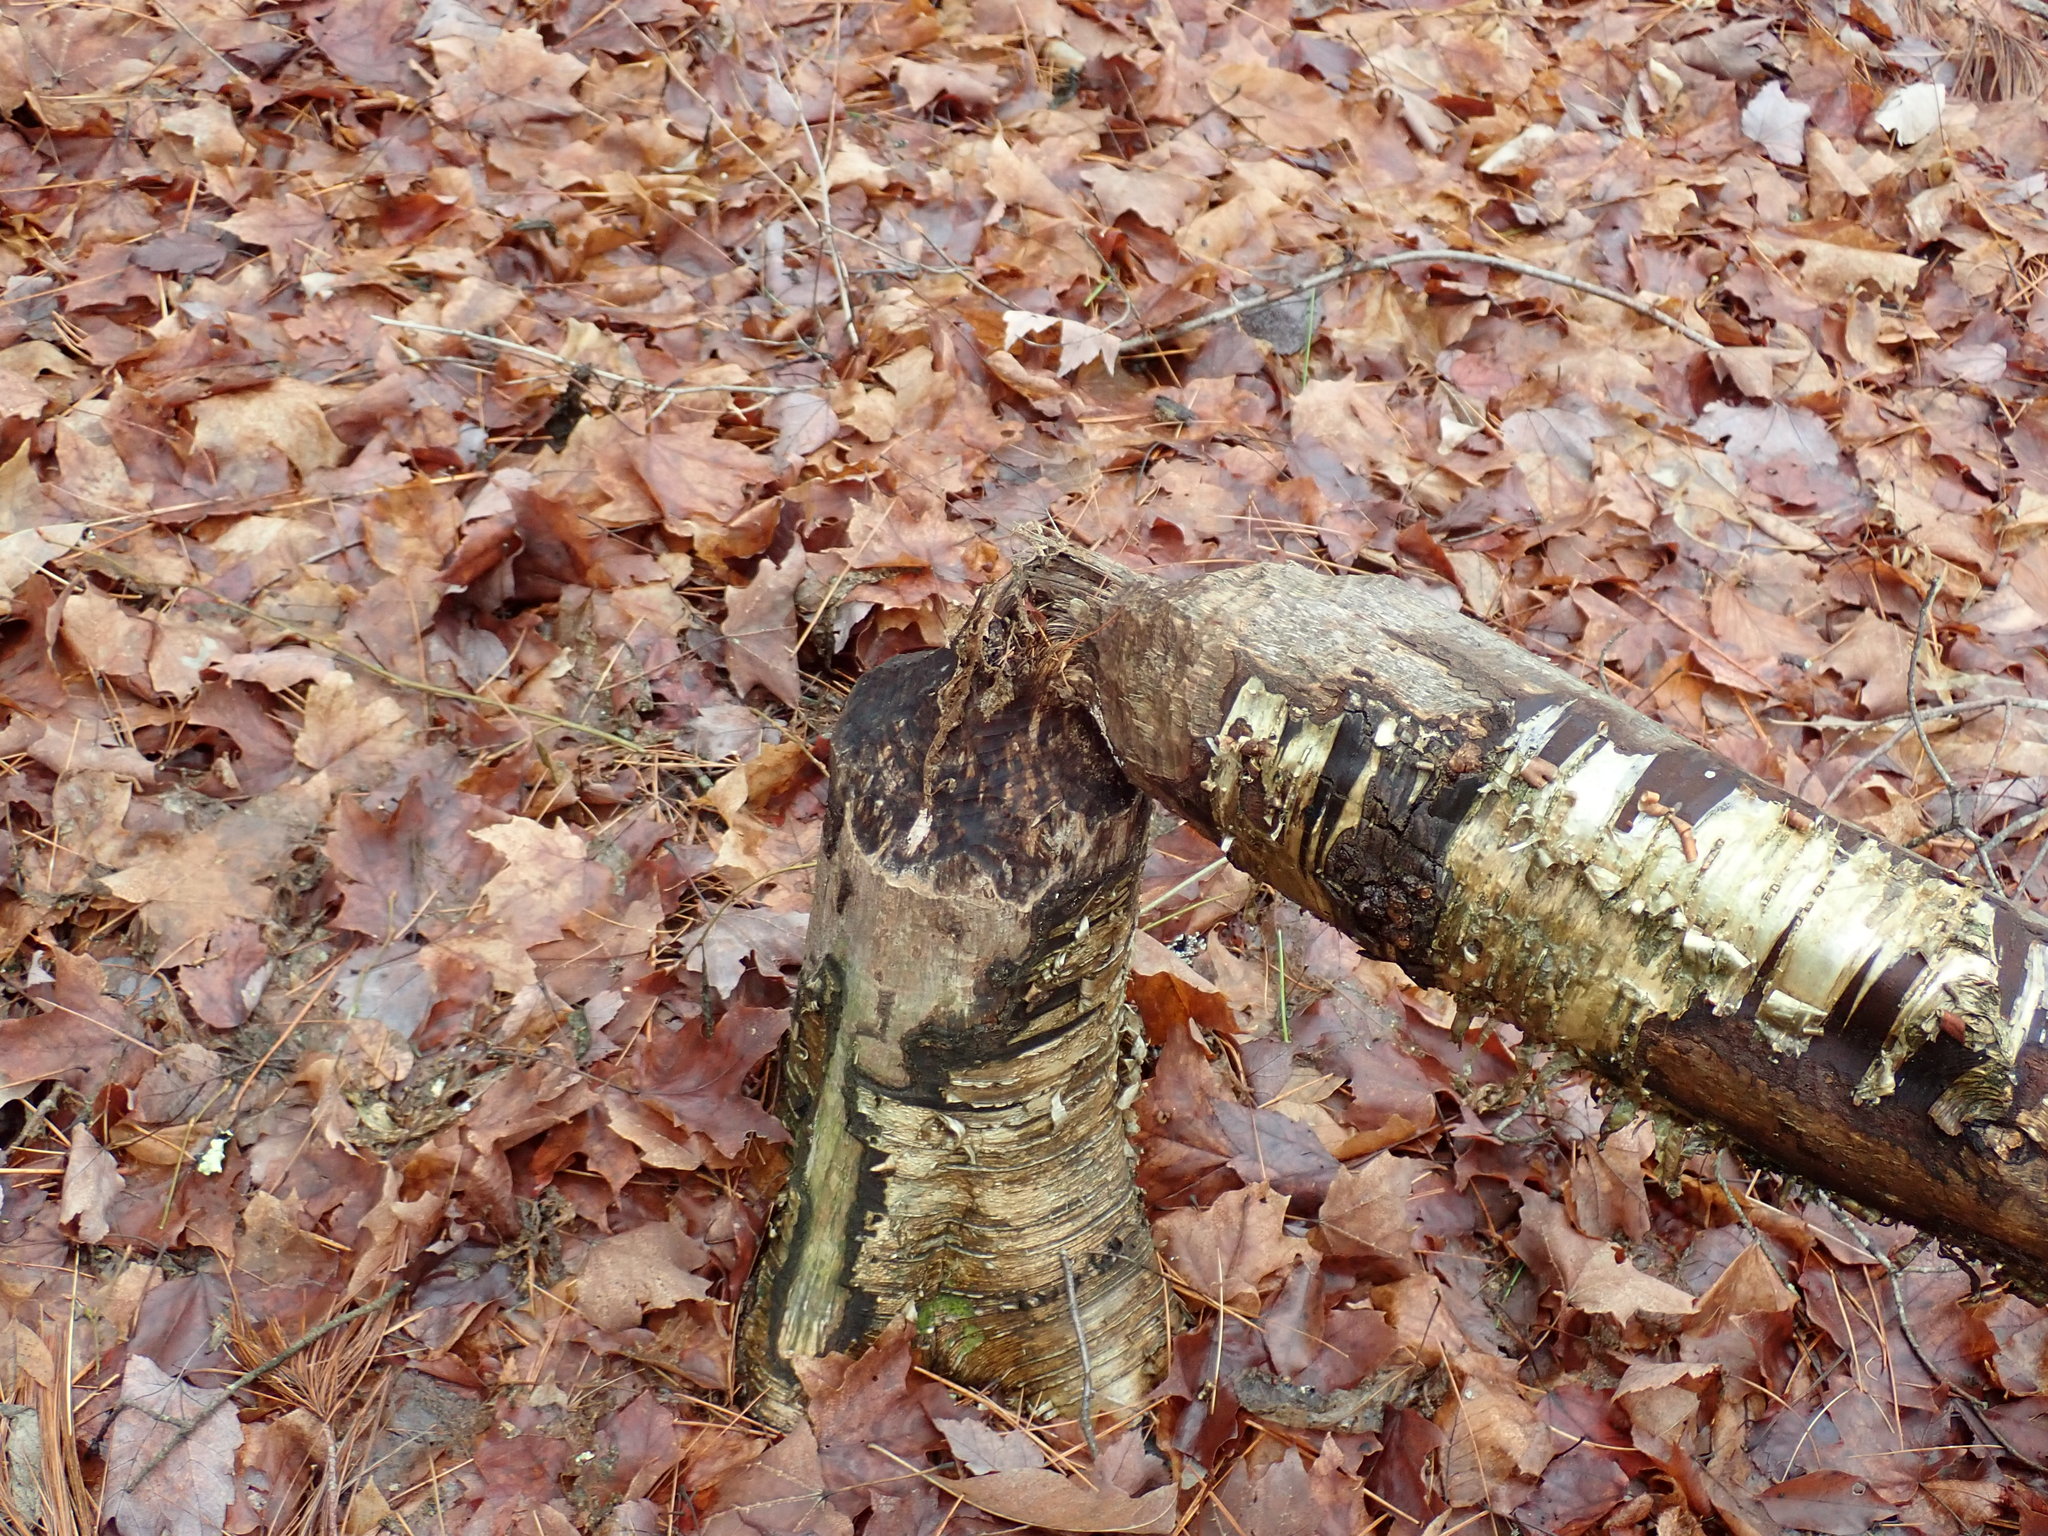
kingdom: Animalia
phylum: Chordata
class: Mammalia
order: Rodentia
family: Castoridae
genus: Castor
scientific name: Castor canadensis
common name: American beaver
